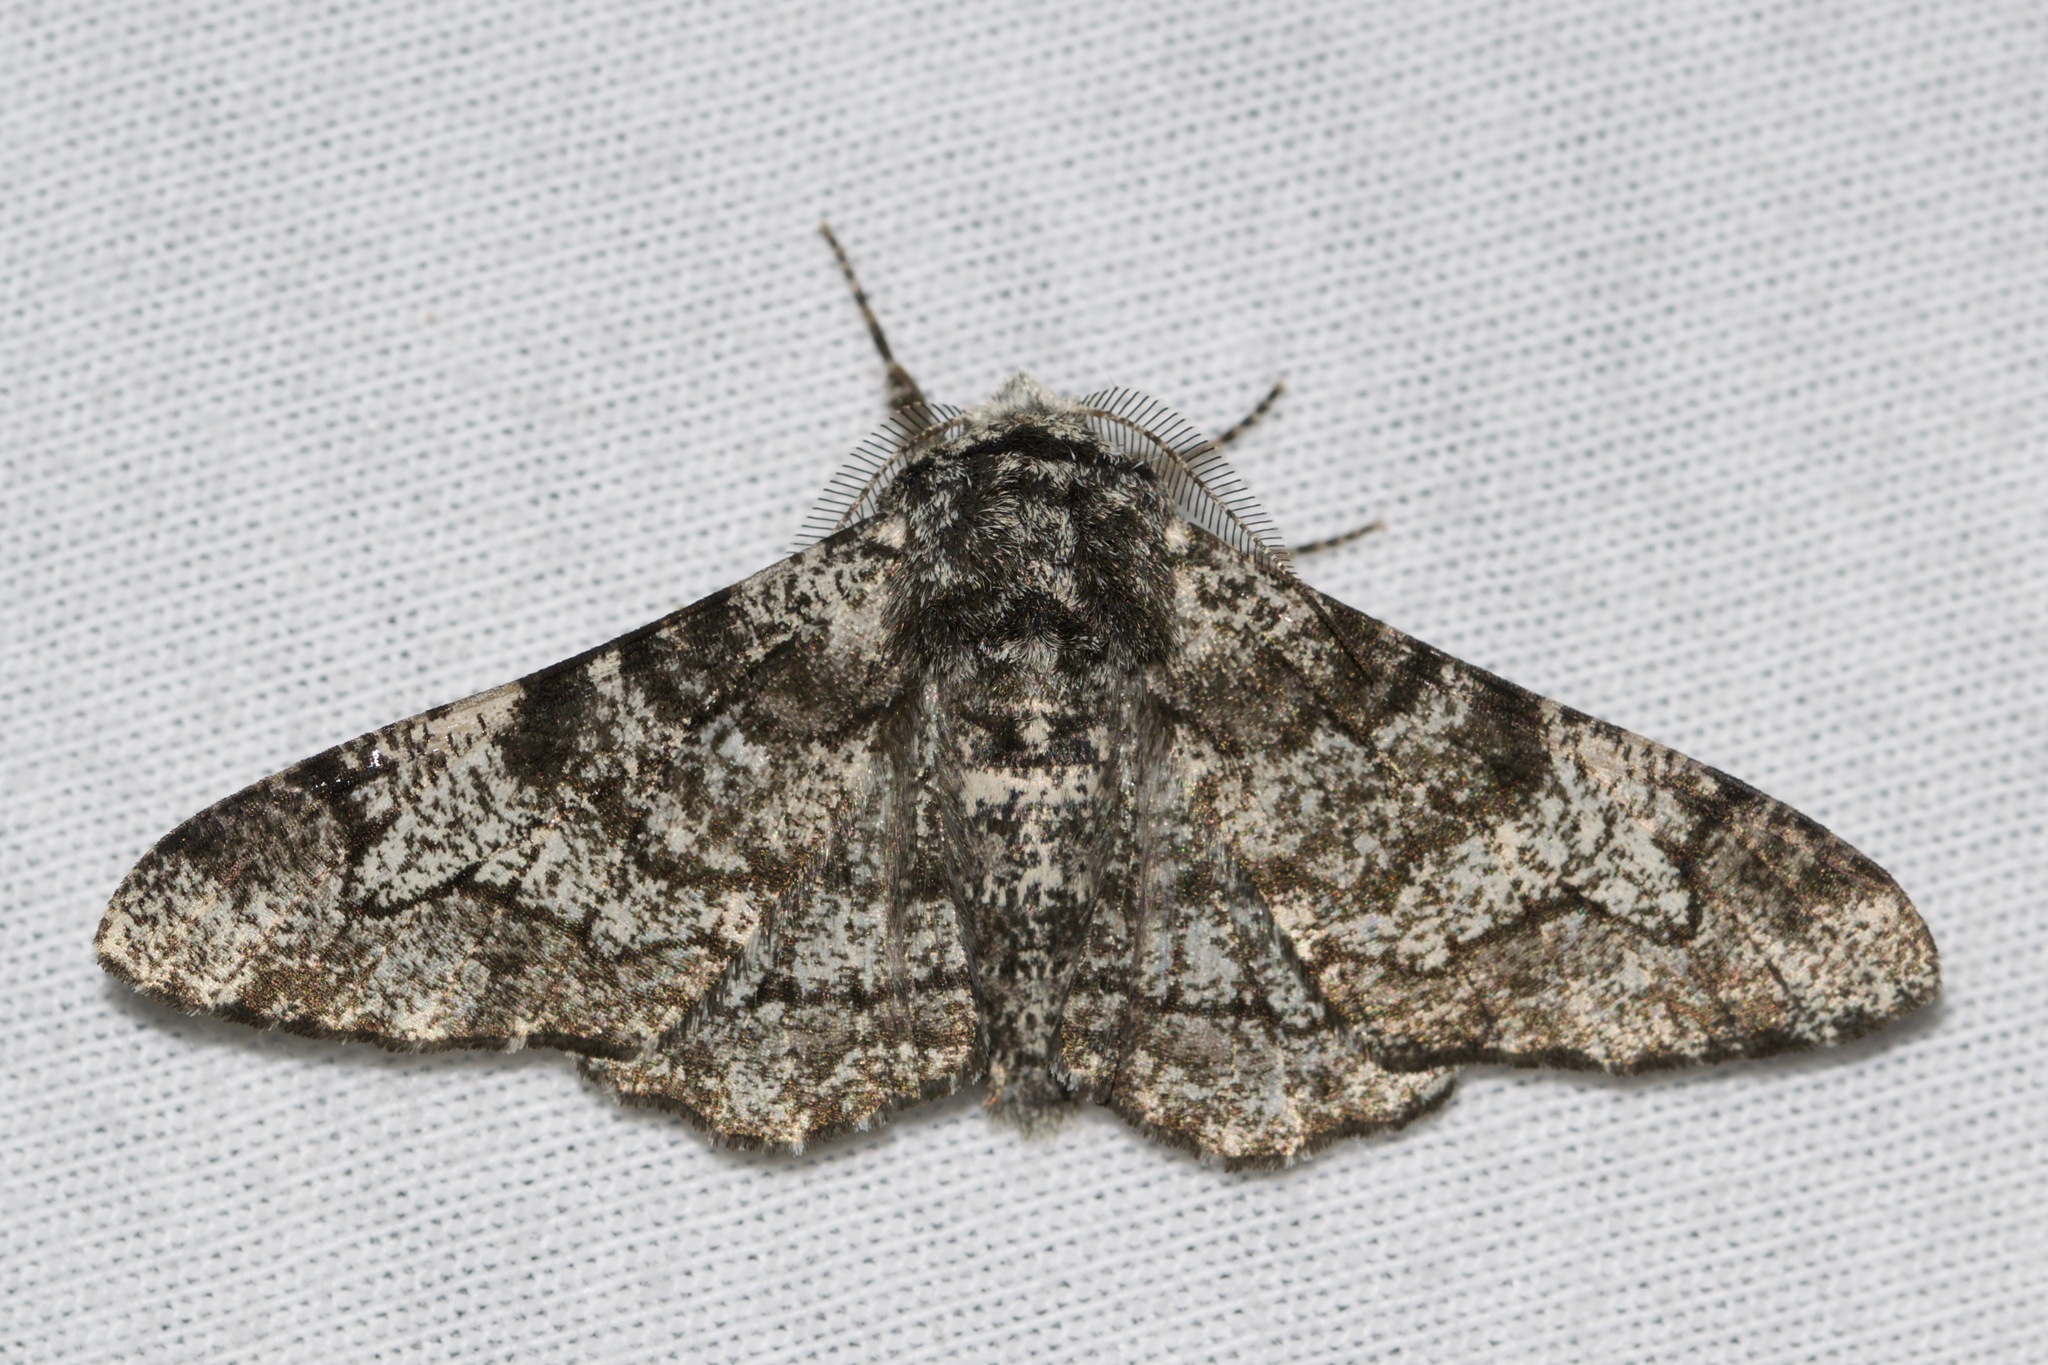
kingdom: Animalia
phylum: Arthropoda
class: Insecta
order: Lepidoptera
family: Geometridae
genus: Biston
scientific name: Biston betularia
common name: Peppered moth
